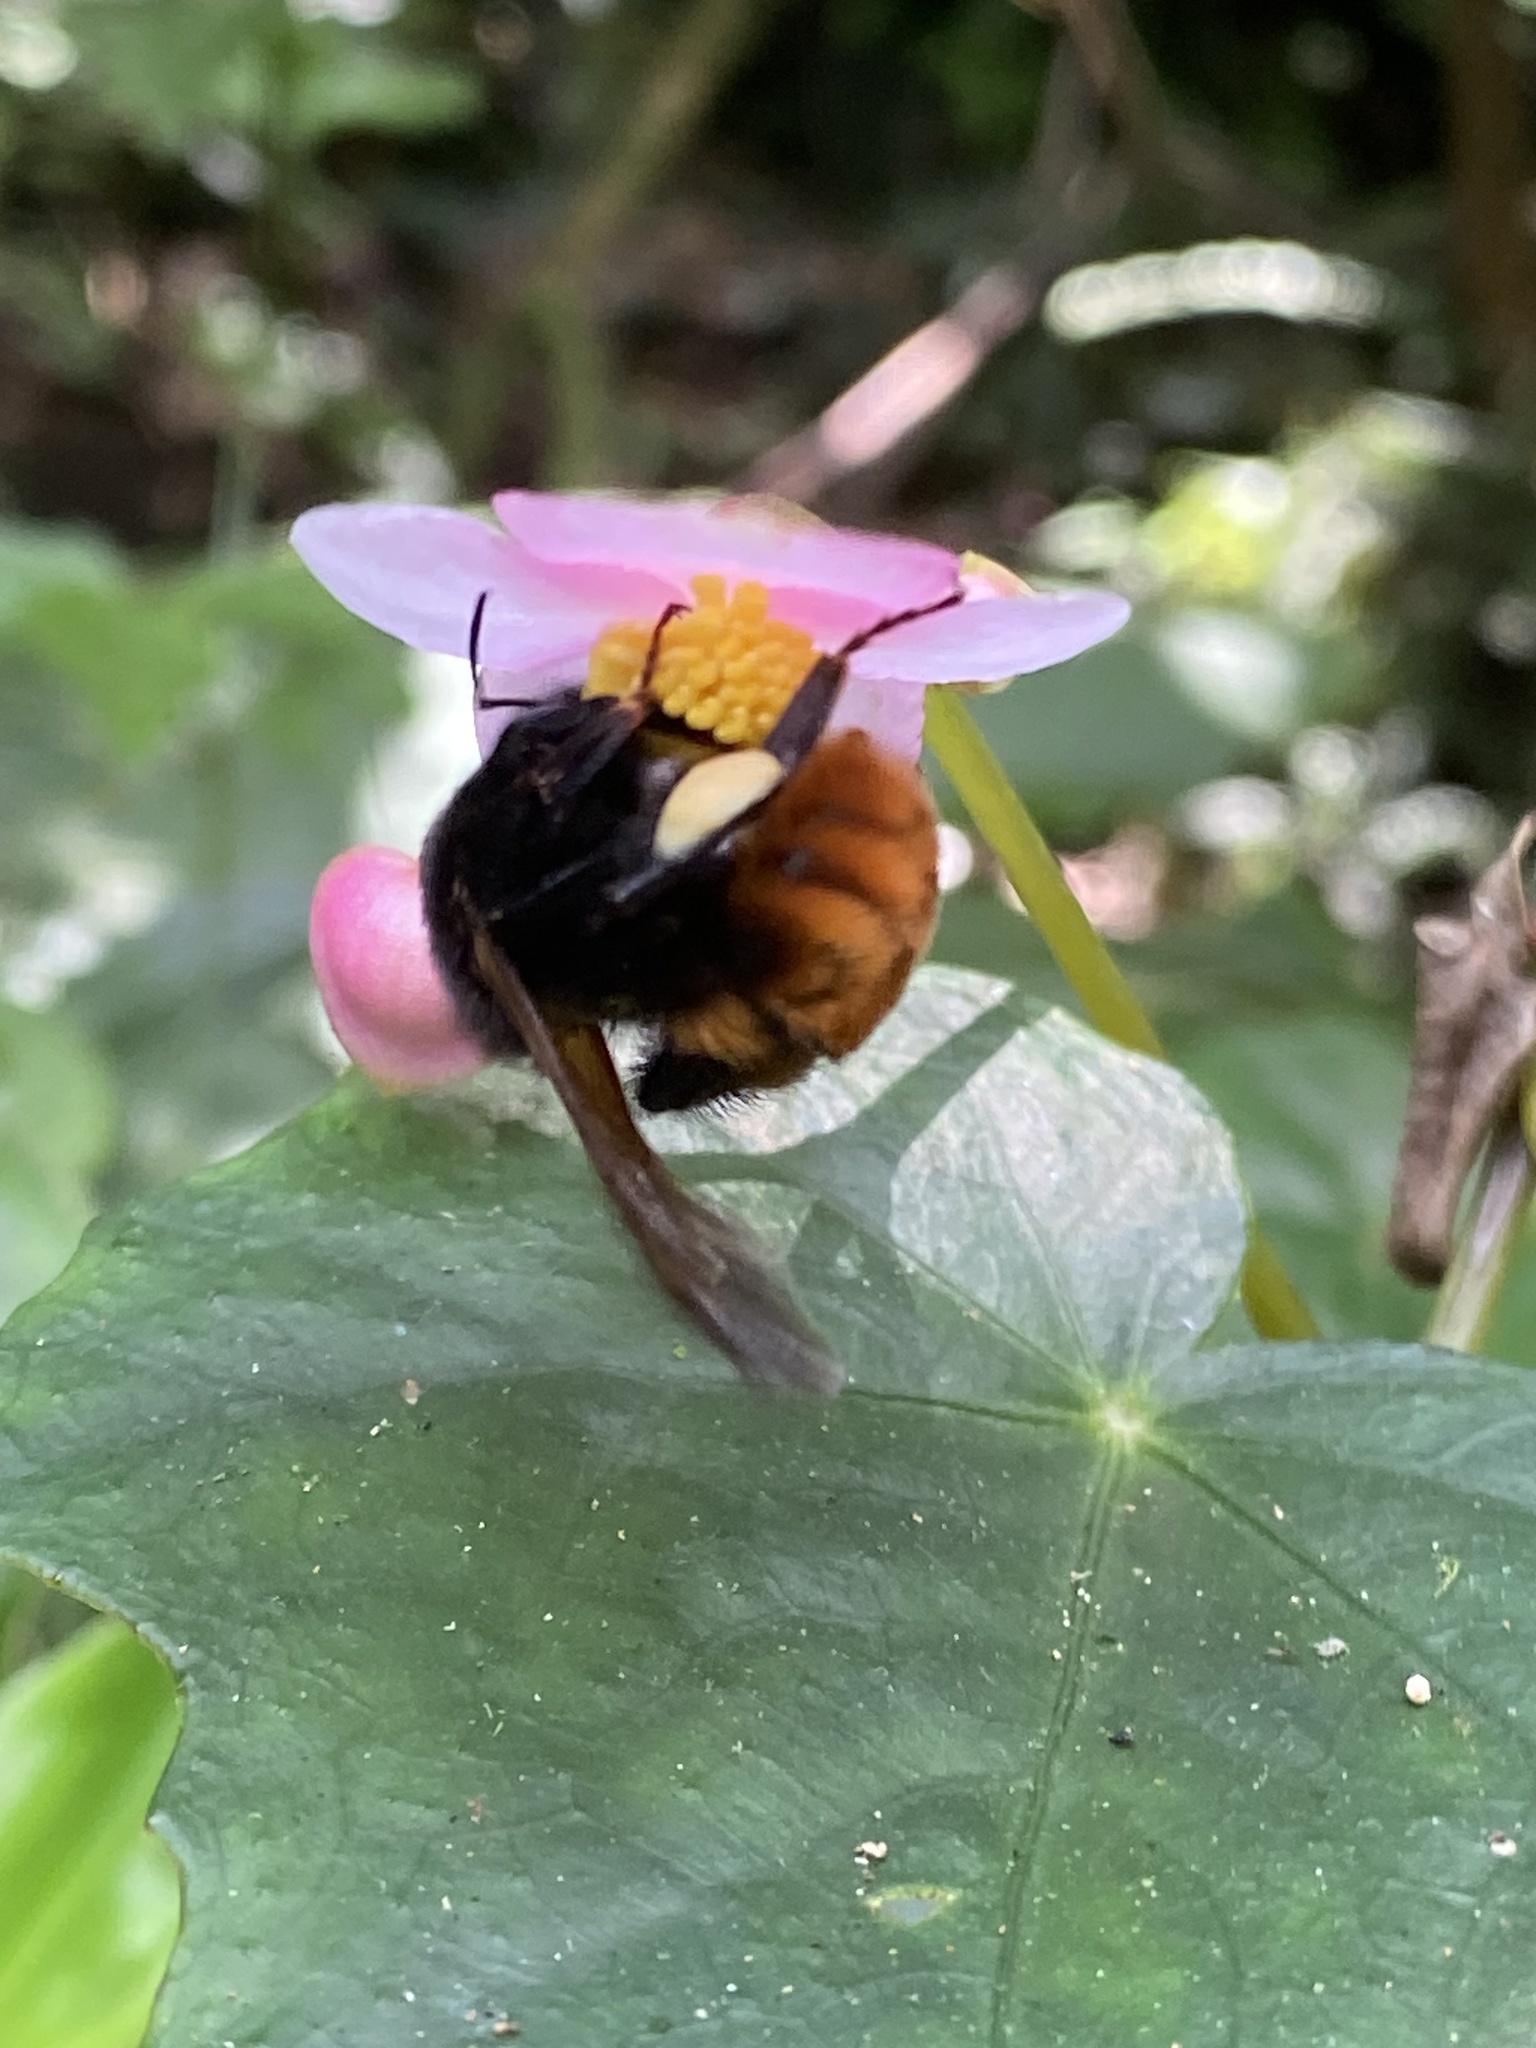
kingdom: Animalia
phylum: Arthropoda
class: Insecta
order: Hymenoptera
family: Apidae
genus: Bombus
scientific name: Bombus bicoloratus
